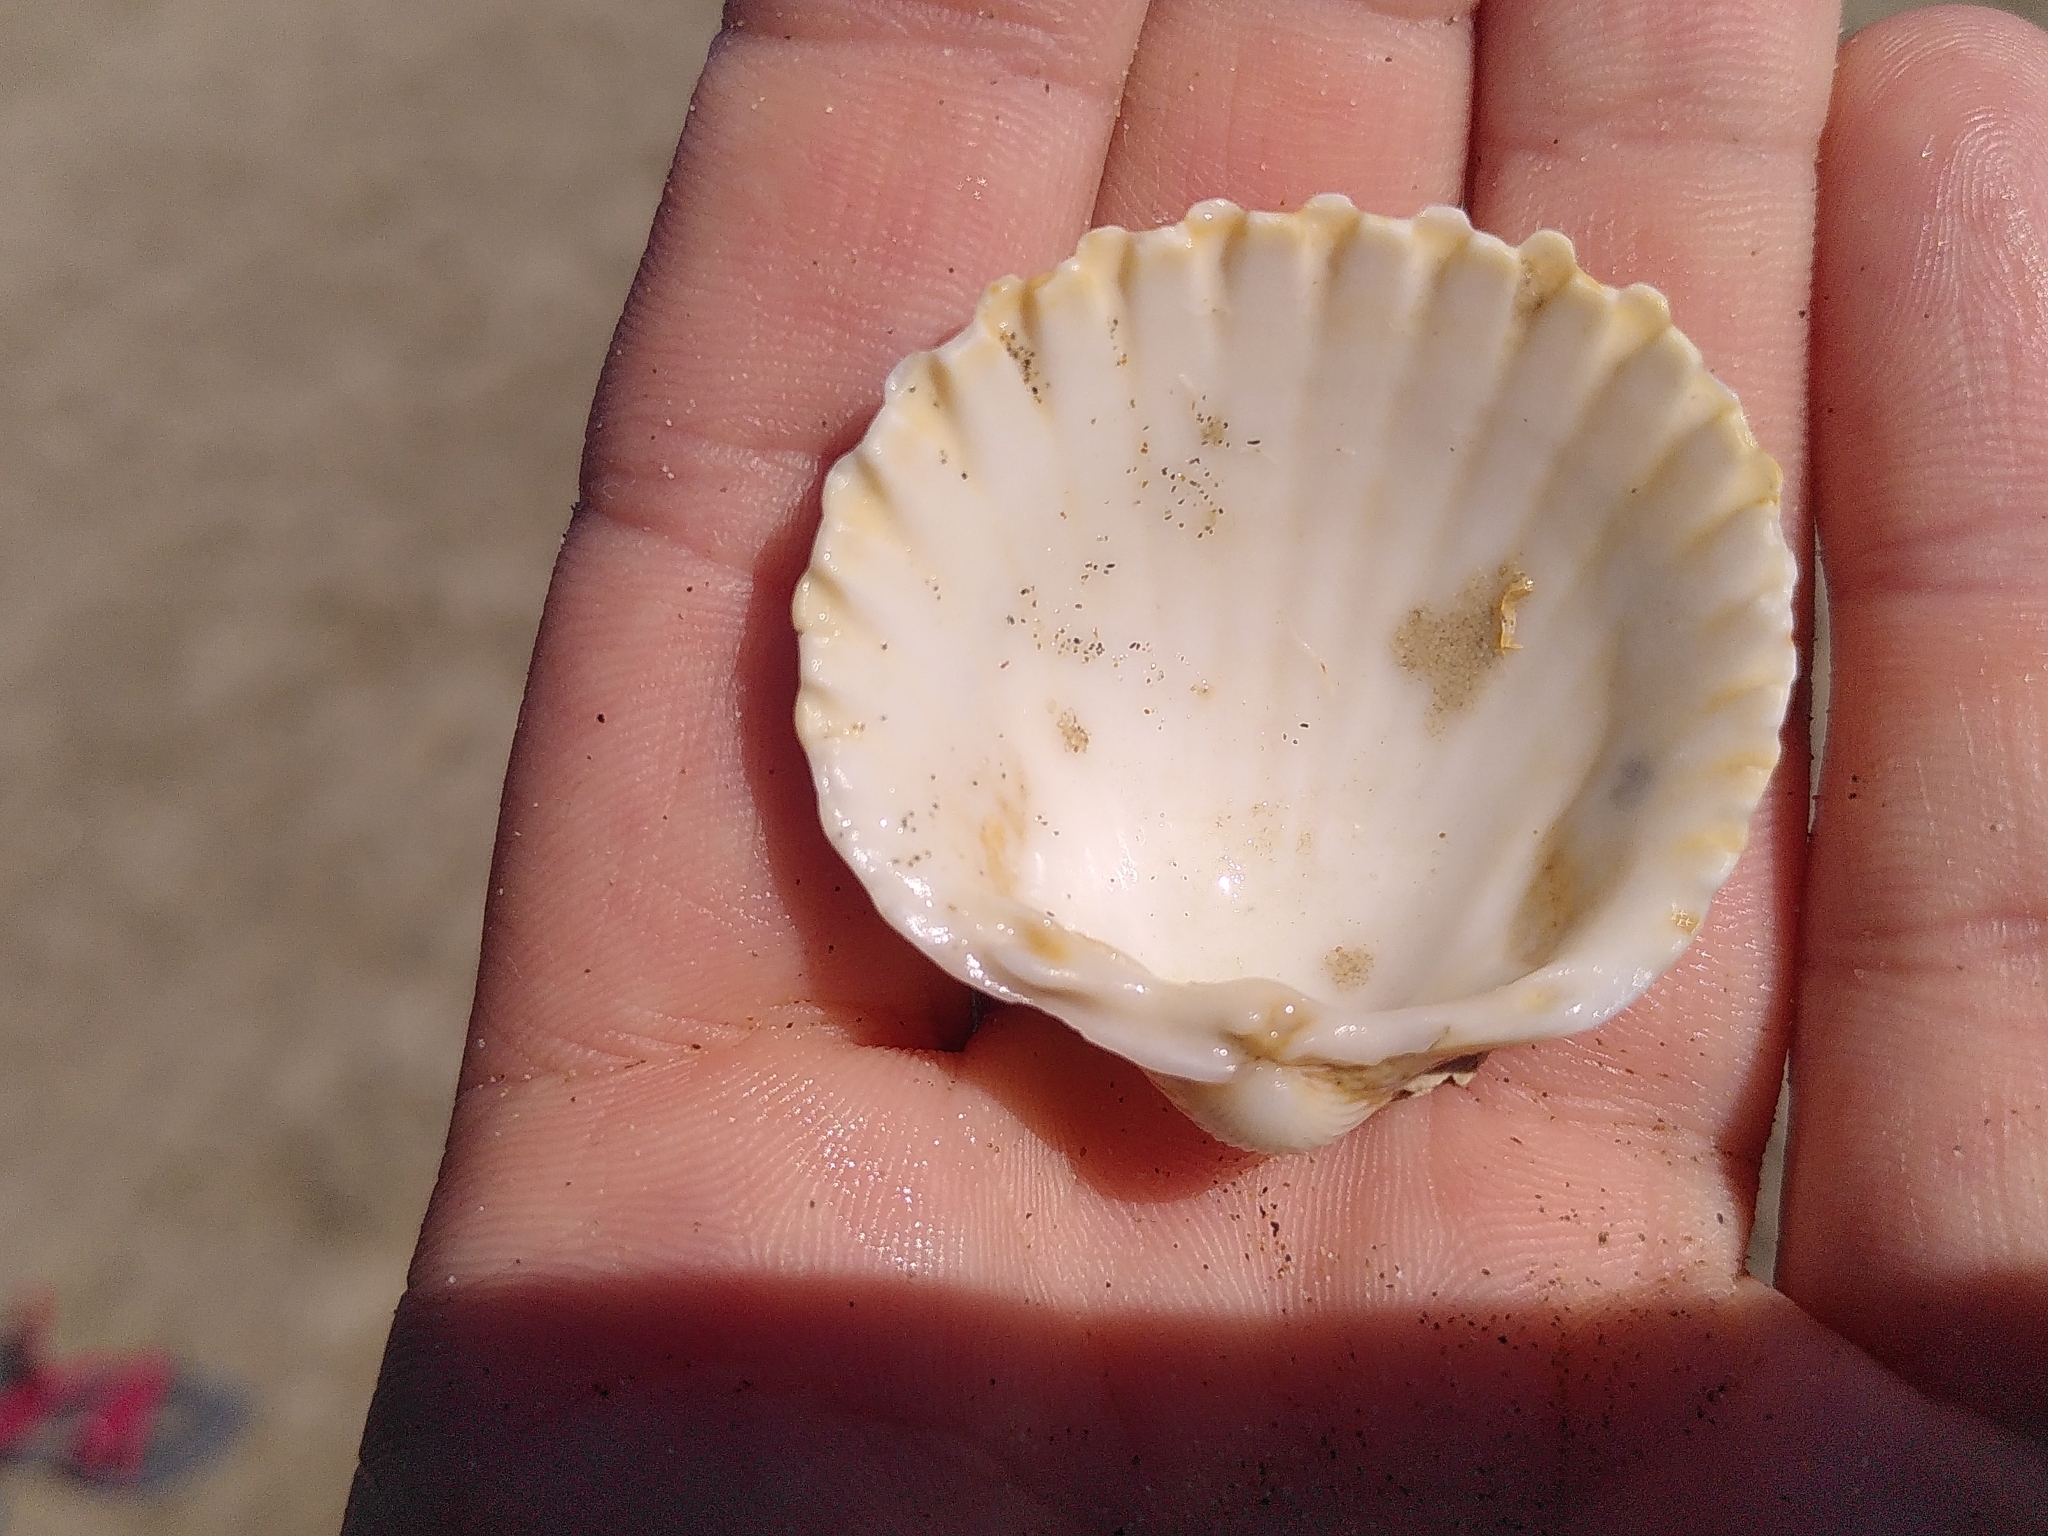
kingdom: Animalia
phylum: Mollusca
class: Bivalvia
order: Cardiida
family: Cardiidae
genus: Acanthocardia
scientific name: Acanthocardia tuberculata
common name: Rough cockle
